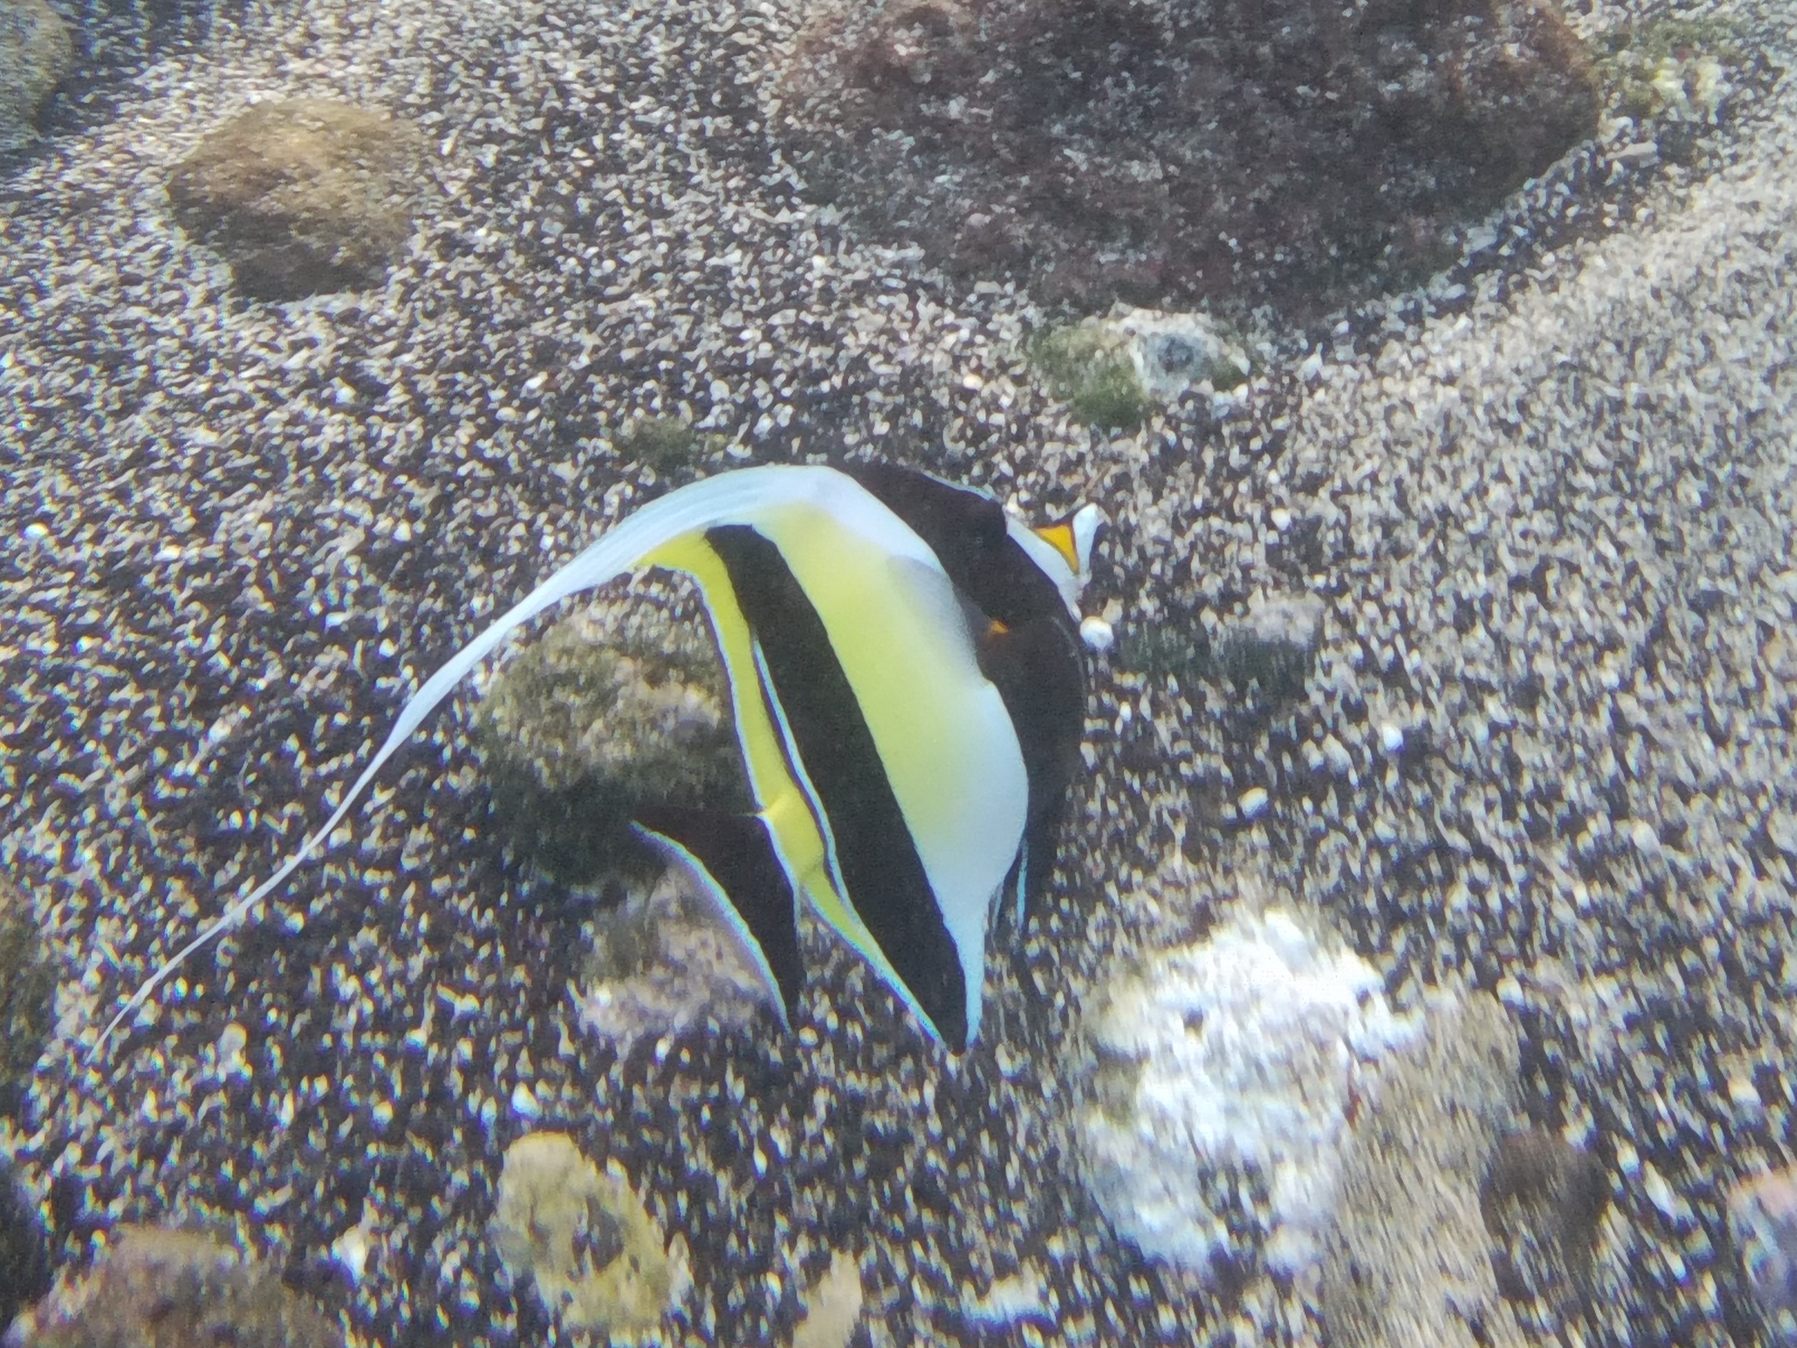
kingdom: Animalia
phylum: Chordata
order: Perciformes
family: Zanclidae
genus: Zanclus
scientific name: Zanclus cornutus
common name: Moorish idol
